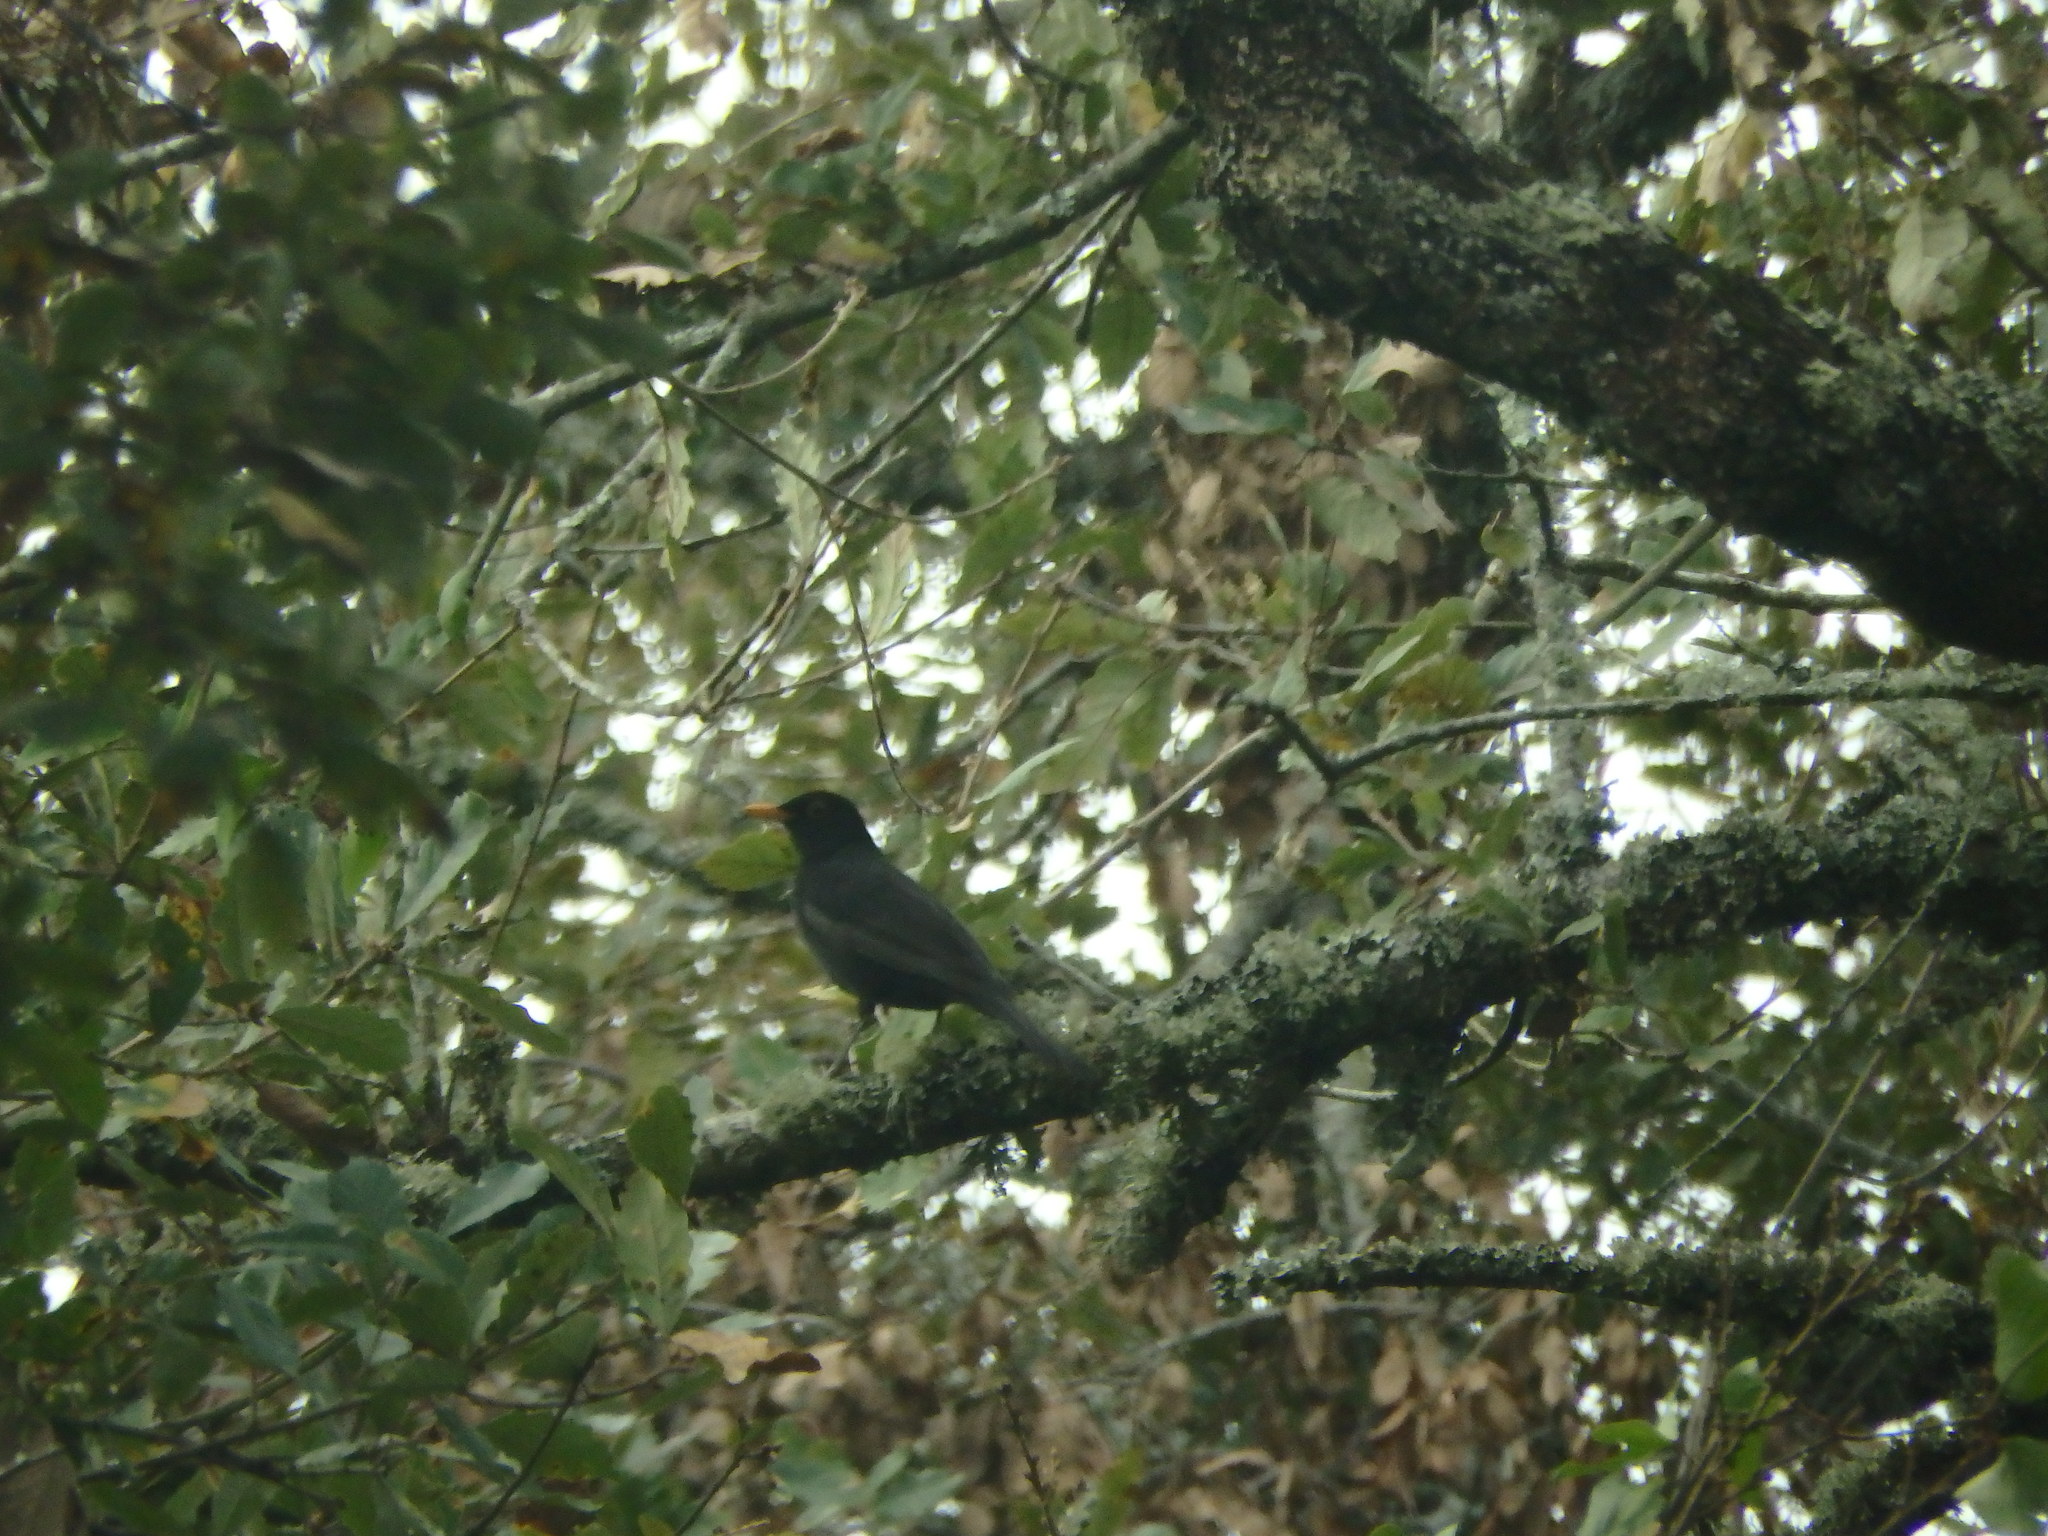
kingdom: Animalia
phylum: Chordata
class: Aves
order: Passeriformes
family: Turdidae
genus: Turdus
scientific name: Turdus merula
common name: Common blackbird
